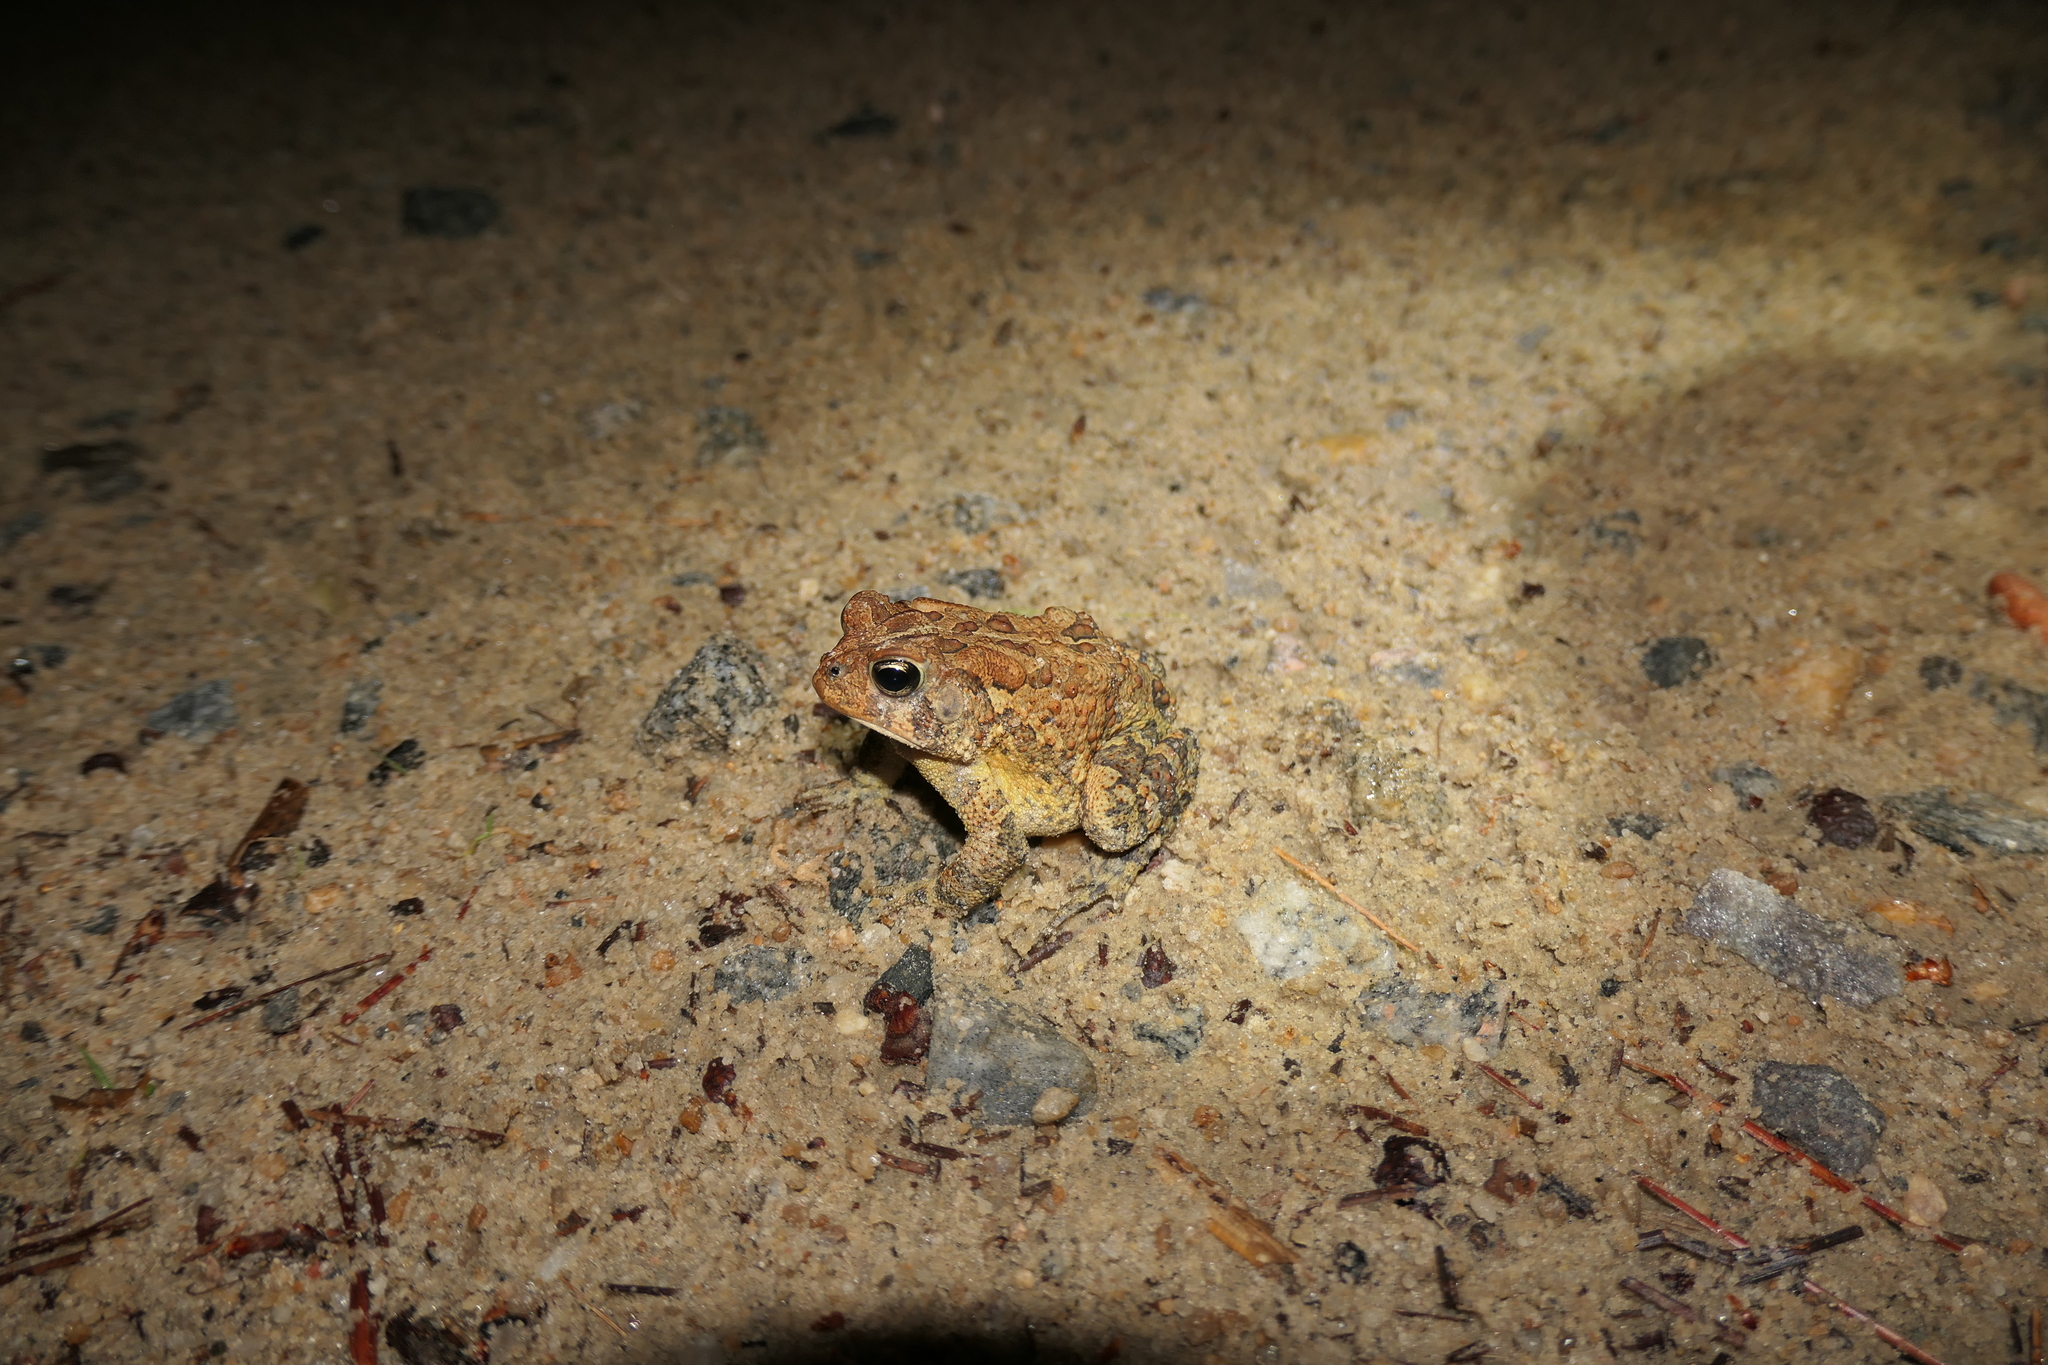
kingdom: Animalia
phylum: Chordata
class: Amphibia
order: Anura
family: Bufonidae
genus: Anaxyrus
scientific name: Anaxyrus terrestris
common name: Southern toad
